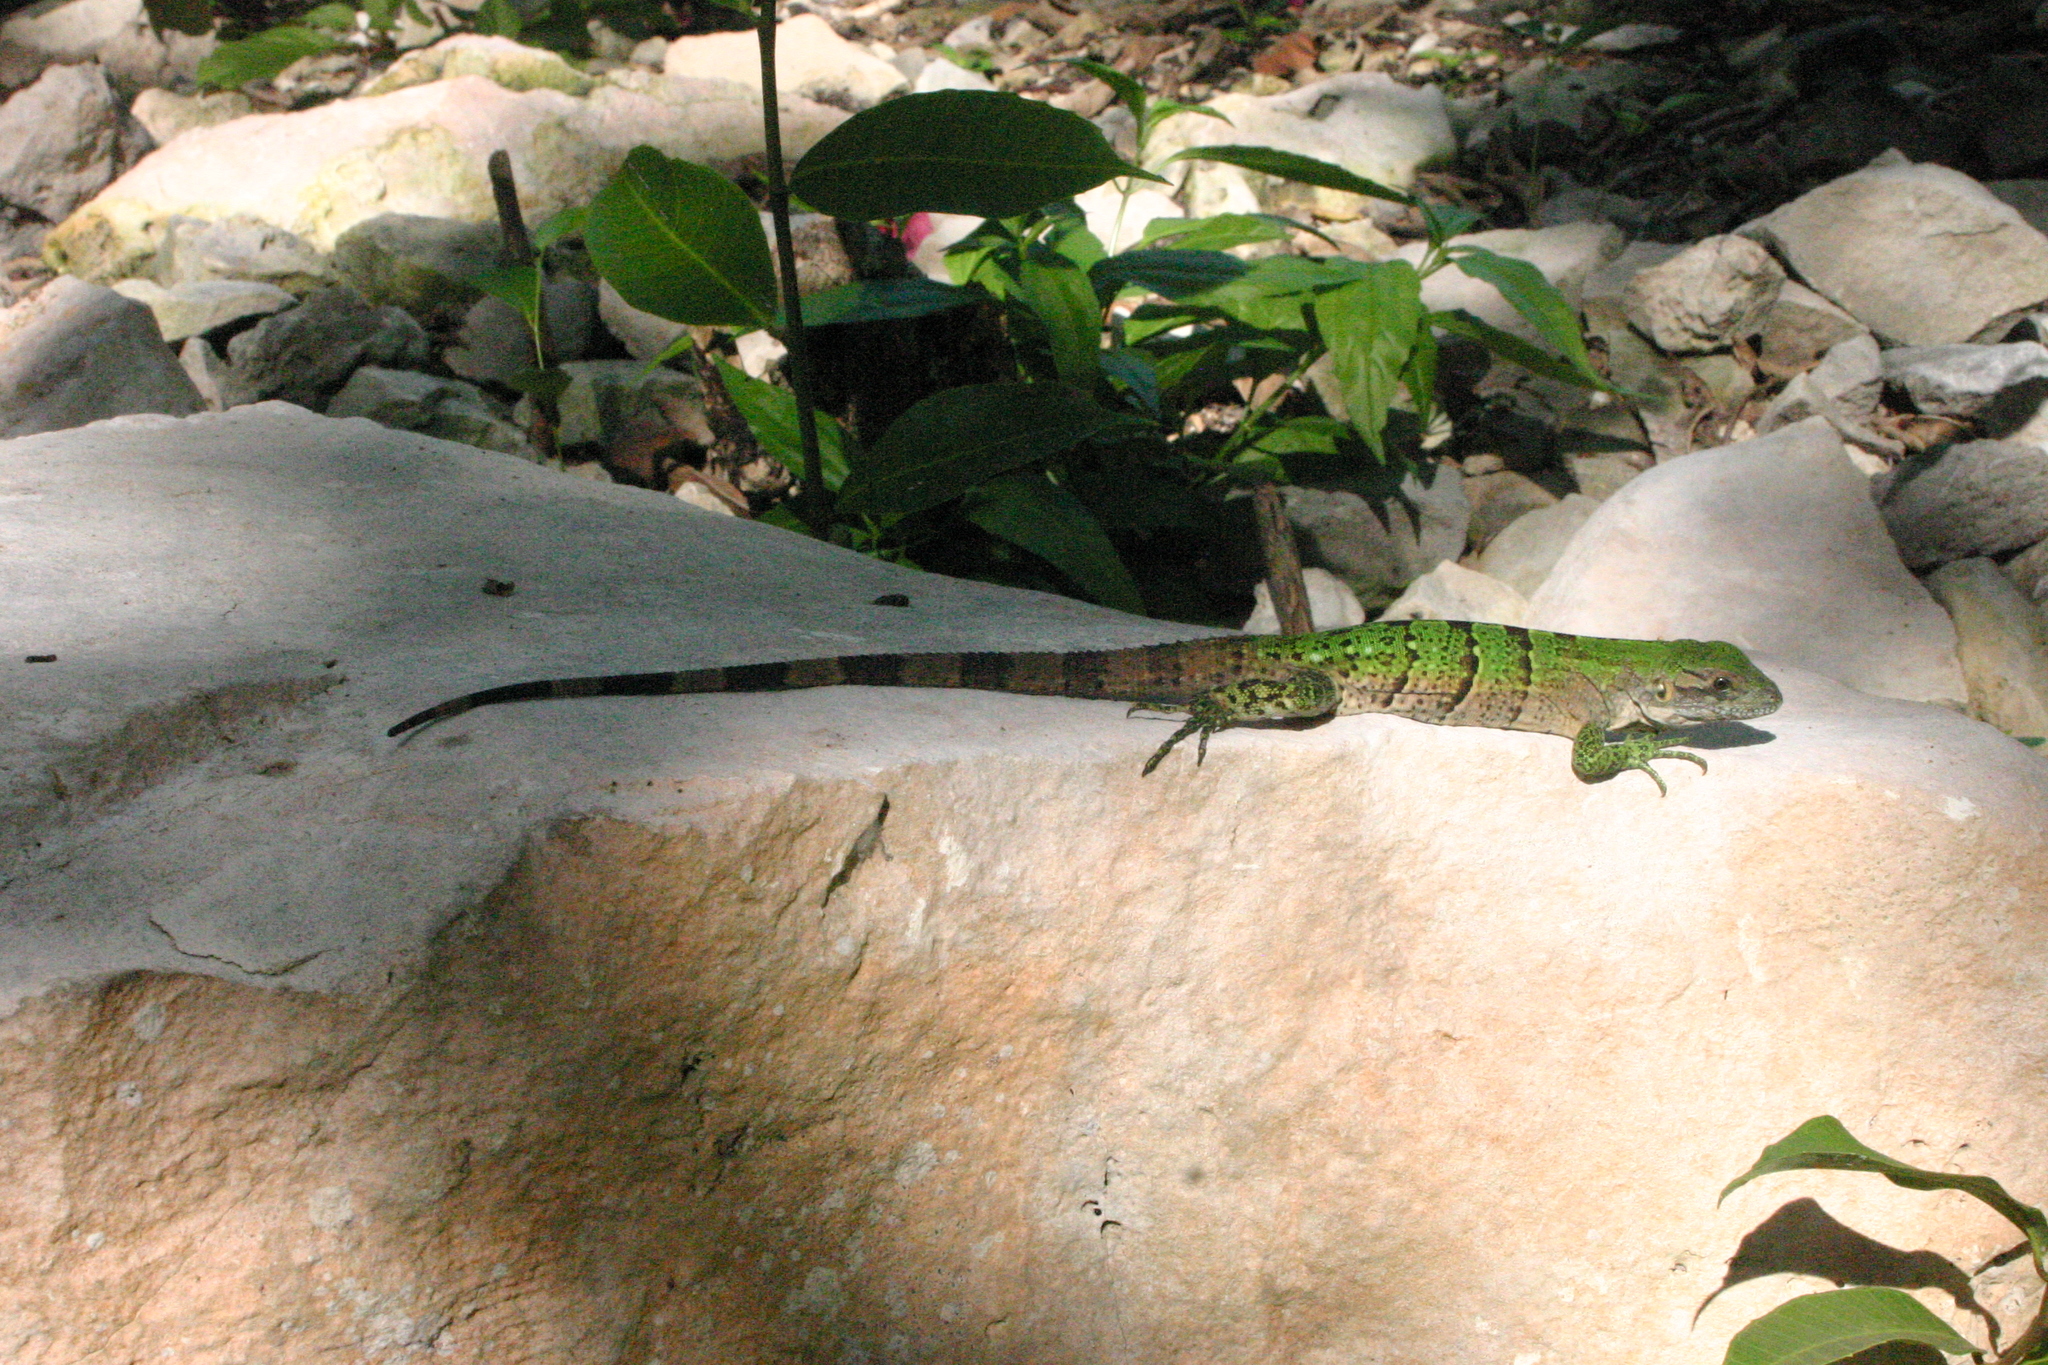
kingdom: Animalia
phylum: Chordata
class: Squamata
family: Iguanidae
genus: Ctenosaura
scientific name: Ctenosaura similis
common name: Black spiny-tailed iguana
